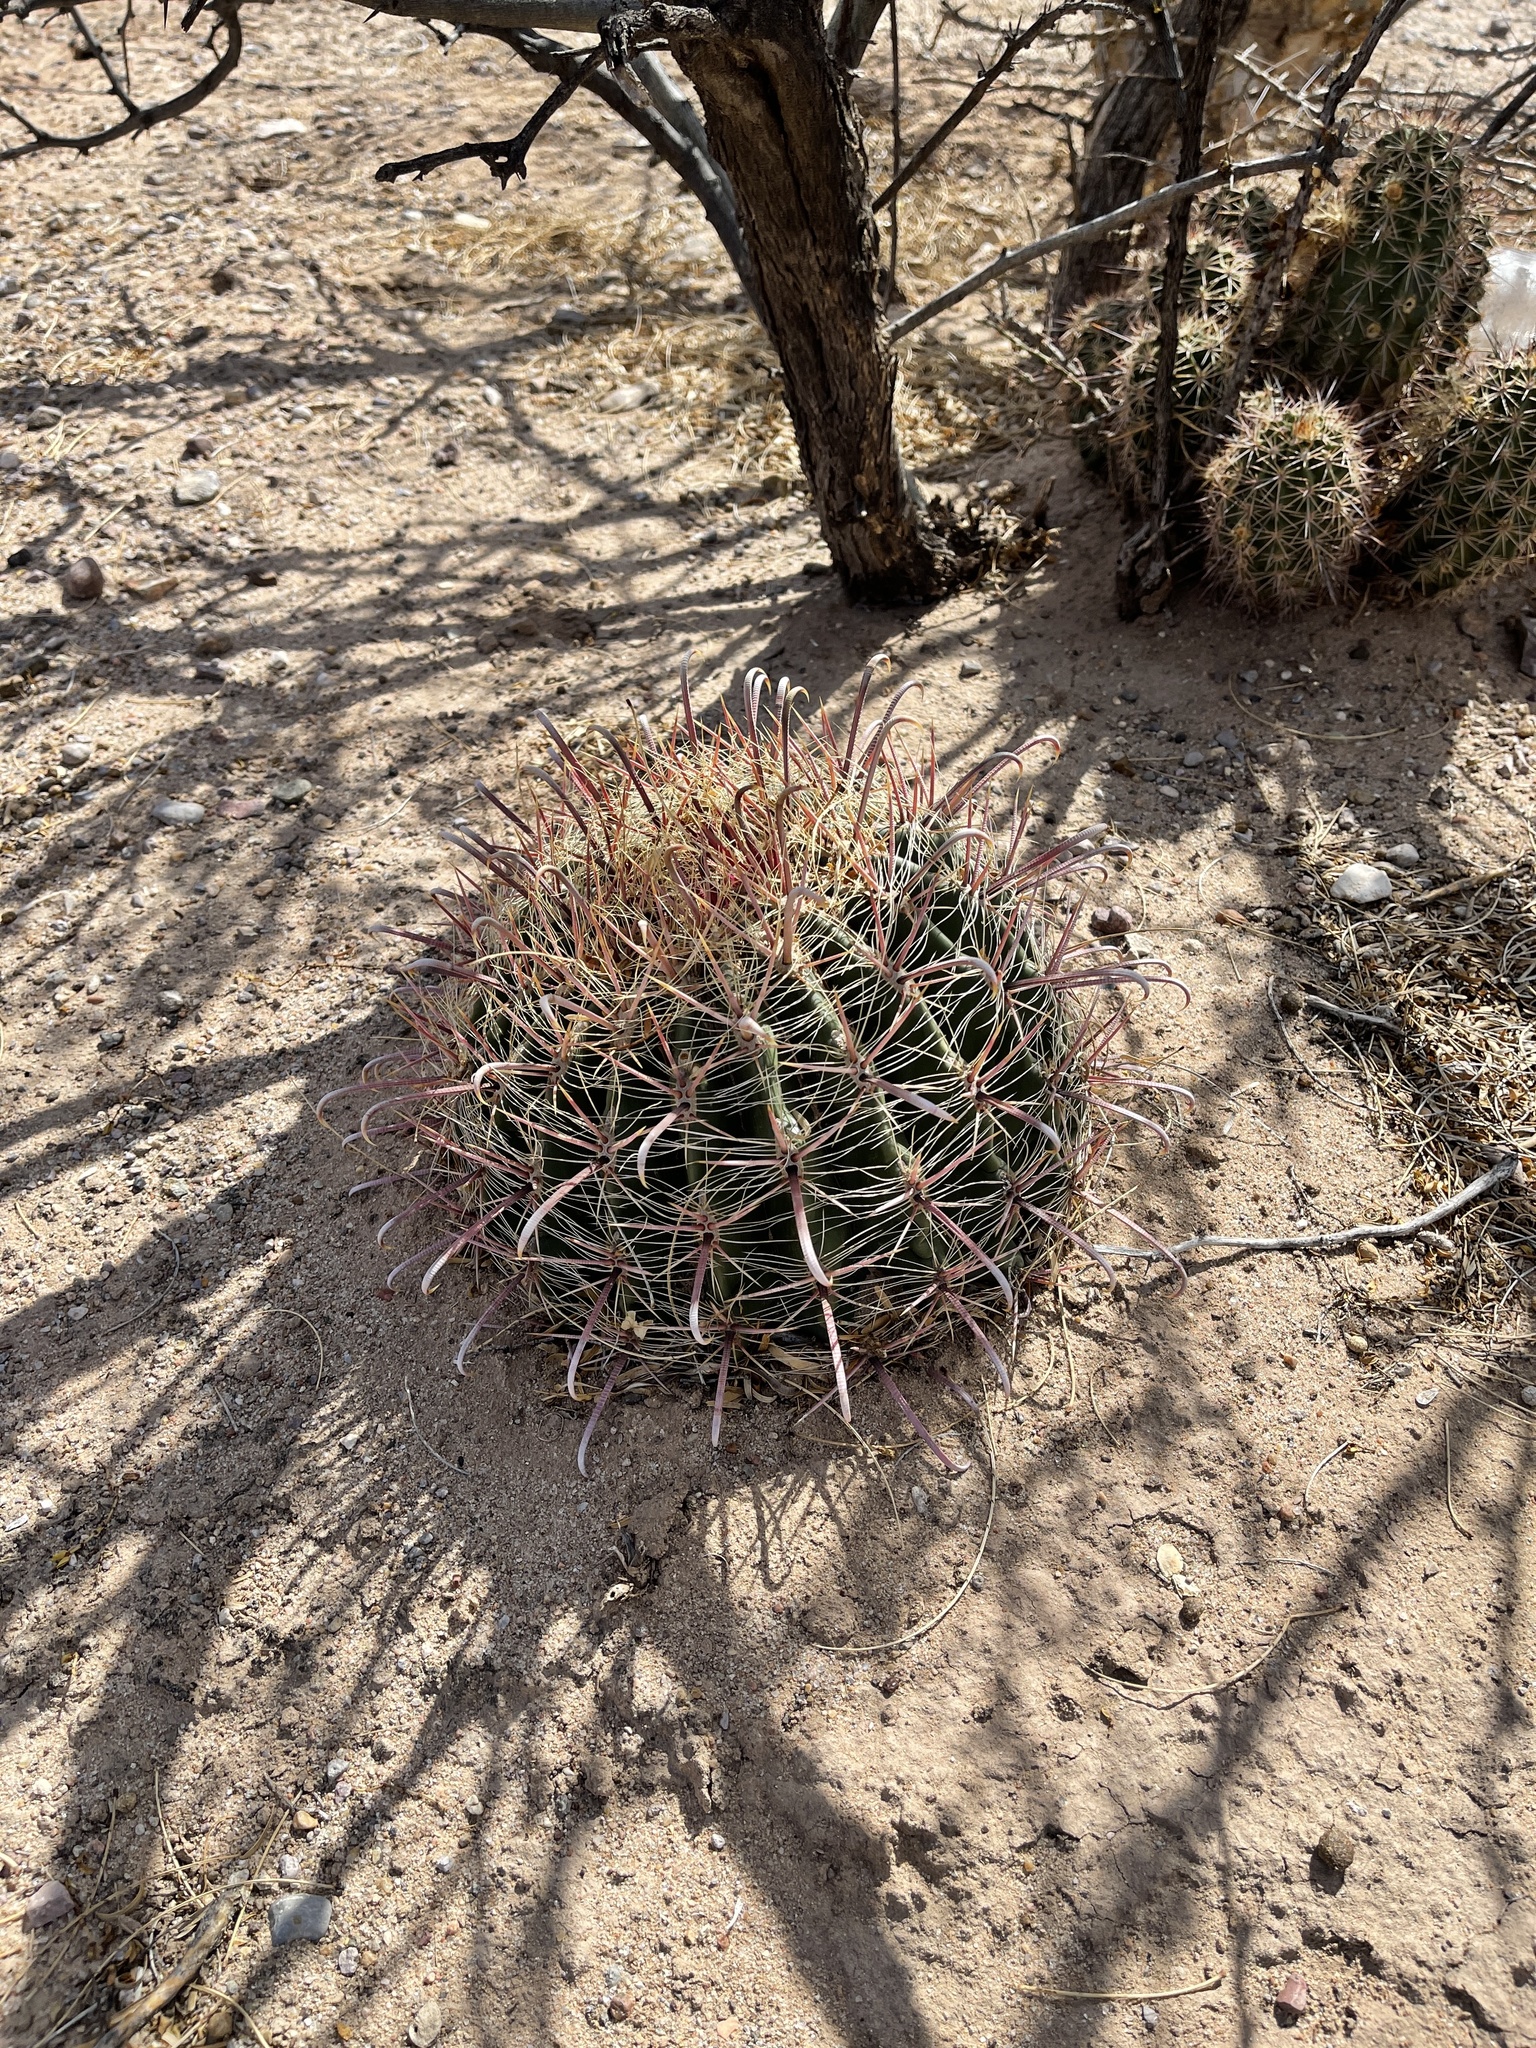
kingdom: Plantae
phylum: Tracheophyta
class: Magnoliopsida
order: Caryophyllales
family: Cactaceae
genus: Ferocactus
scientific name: Ferocactus wislizeni
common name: Candy barrel cactus
